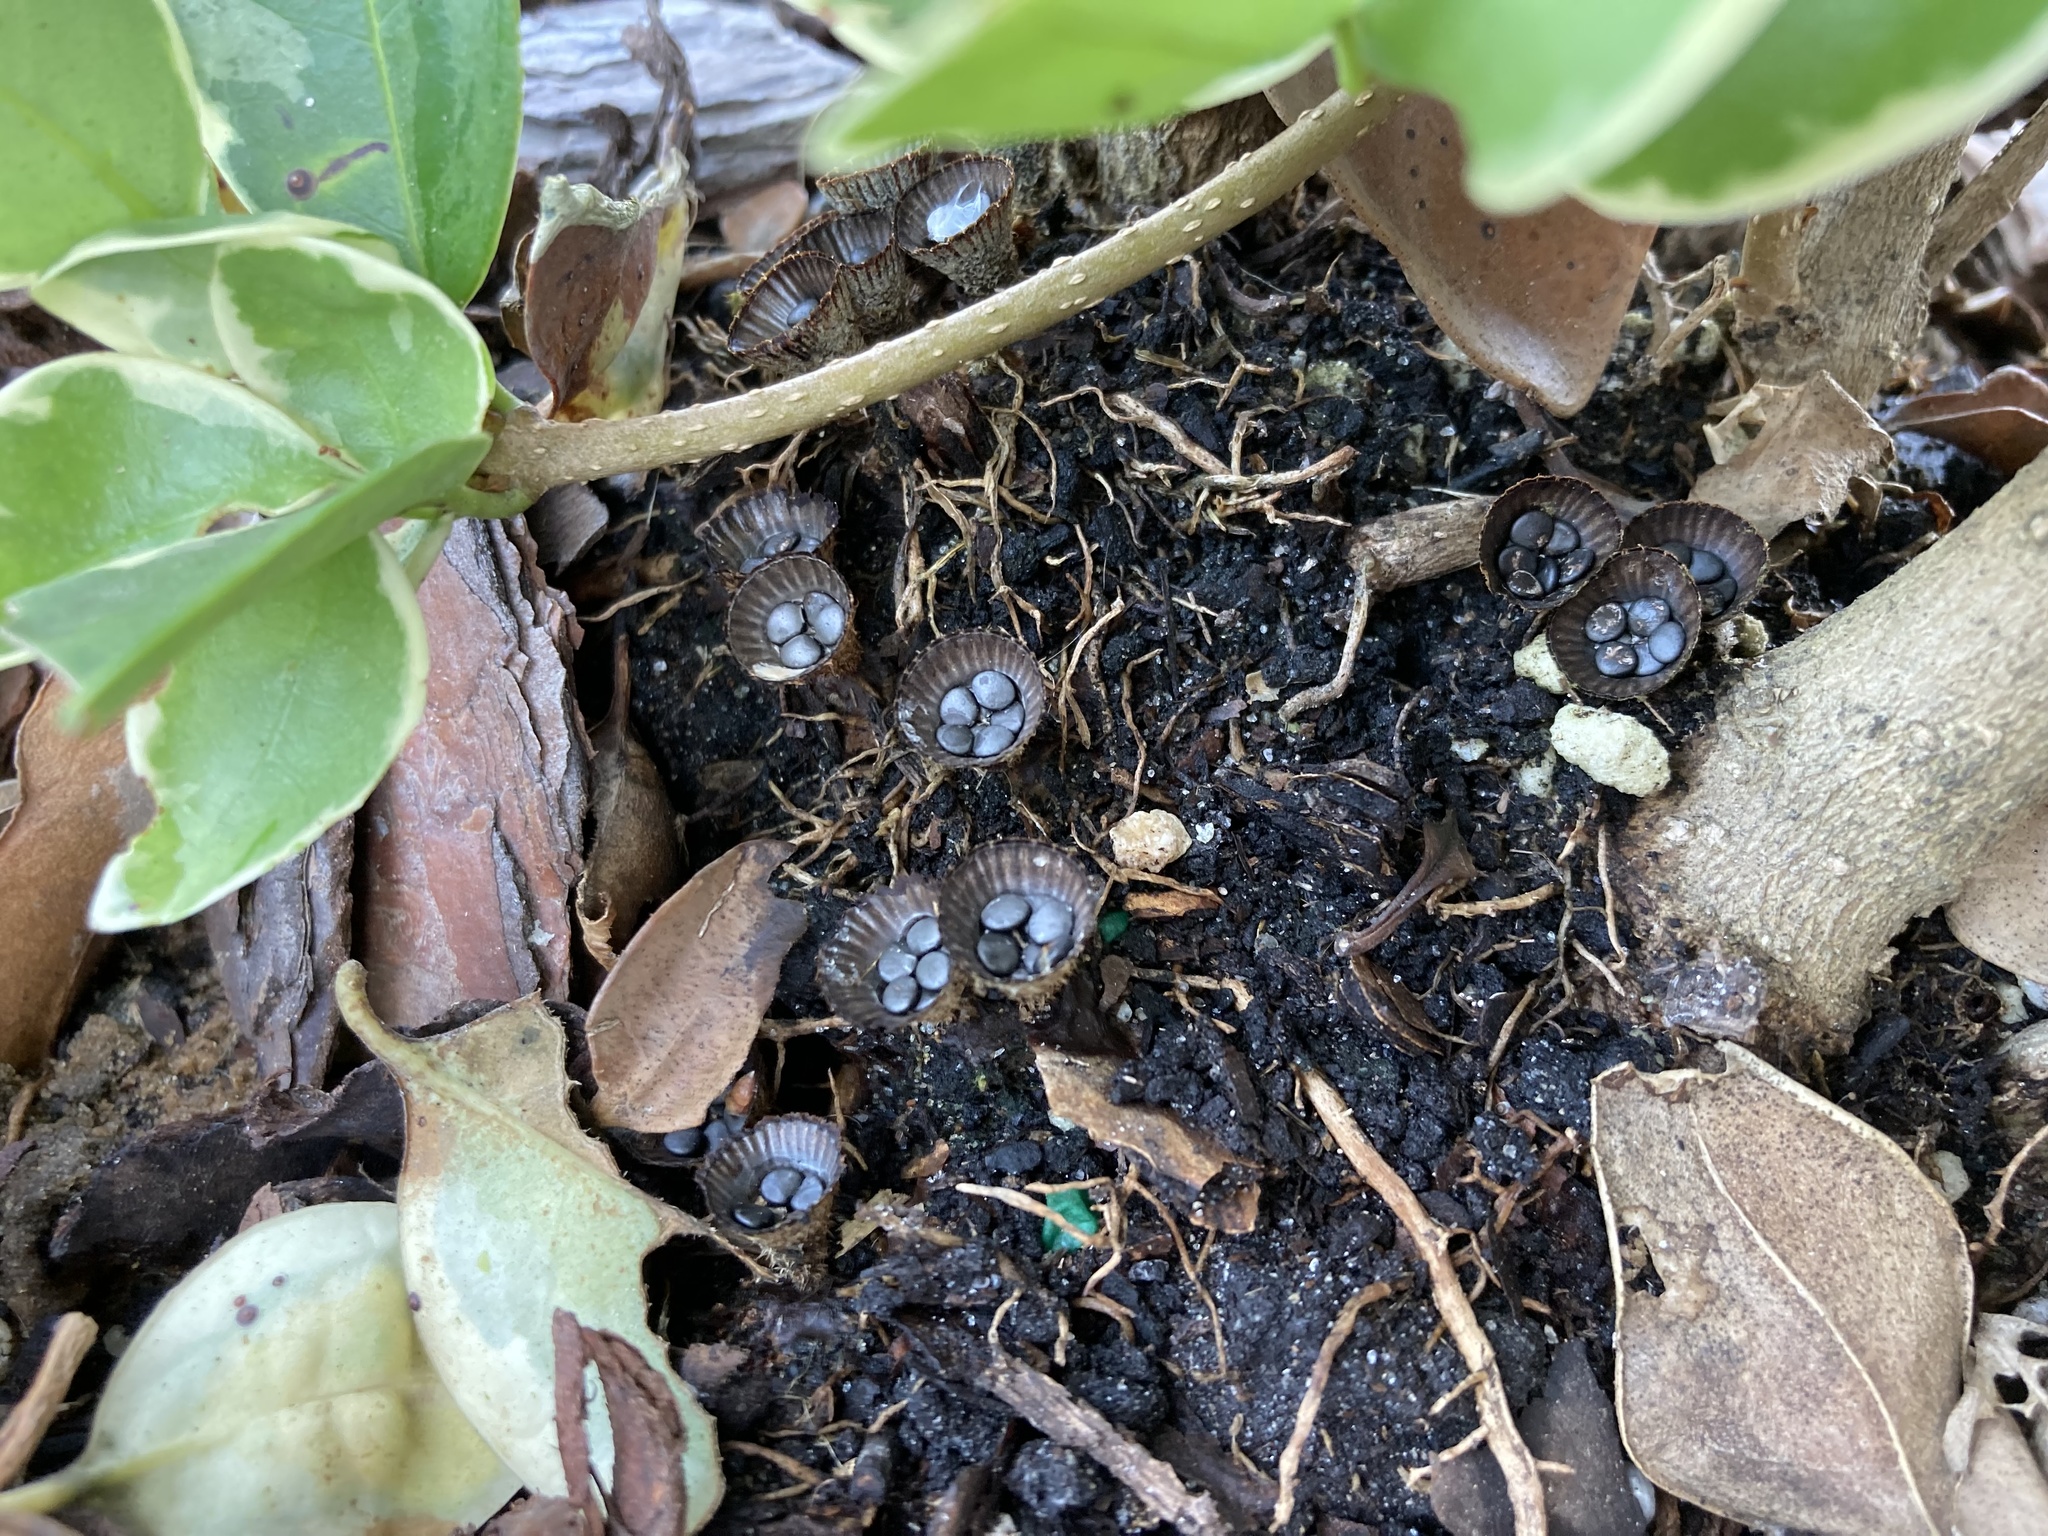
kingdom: Fungi
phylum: Basidiomycota
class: Agaricomycetes
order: Agaricales
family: Agaricaceae
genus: Cyathus
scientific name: Cyathus striatus
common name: Fluted bird's nest
